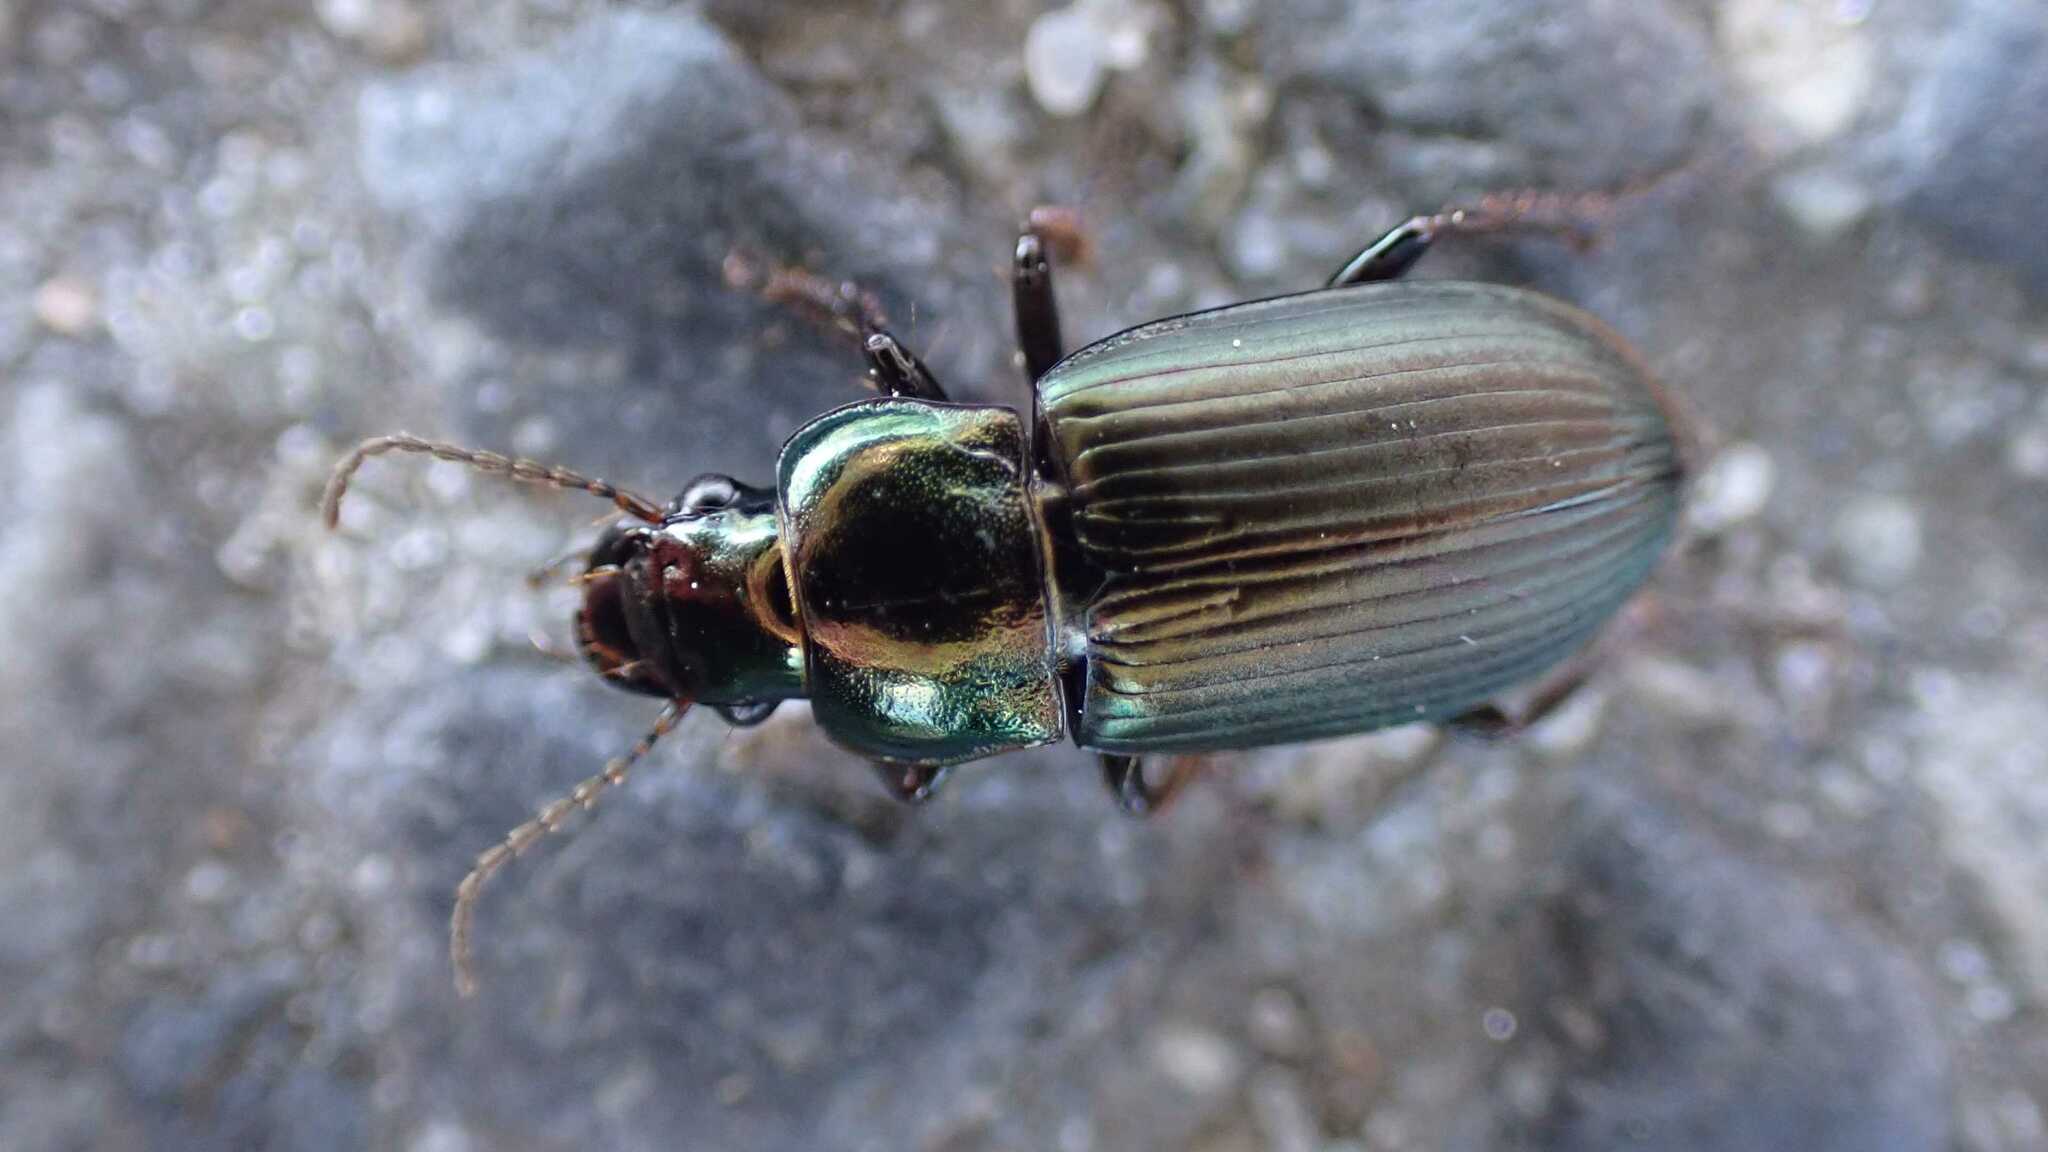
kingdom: Animalia
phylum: Arthropoda
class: Insecta
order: Coleoptera
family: Carabidae
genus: Harpalus
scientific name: Harpalus distinguendus
